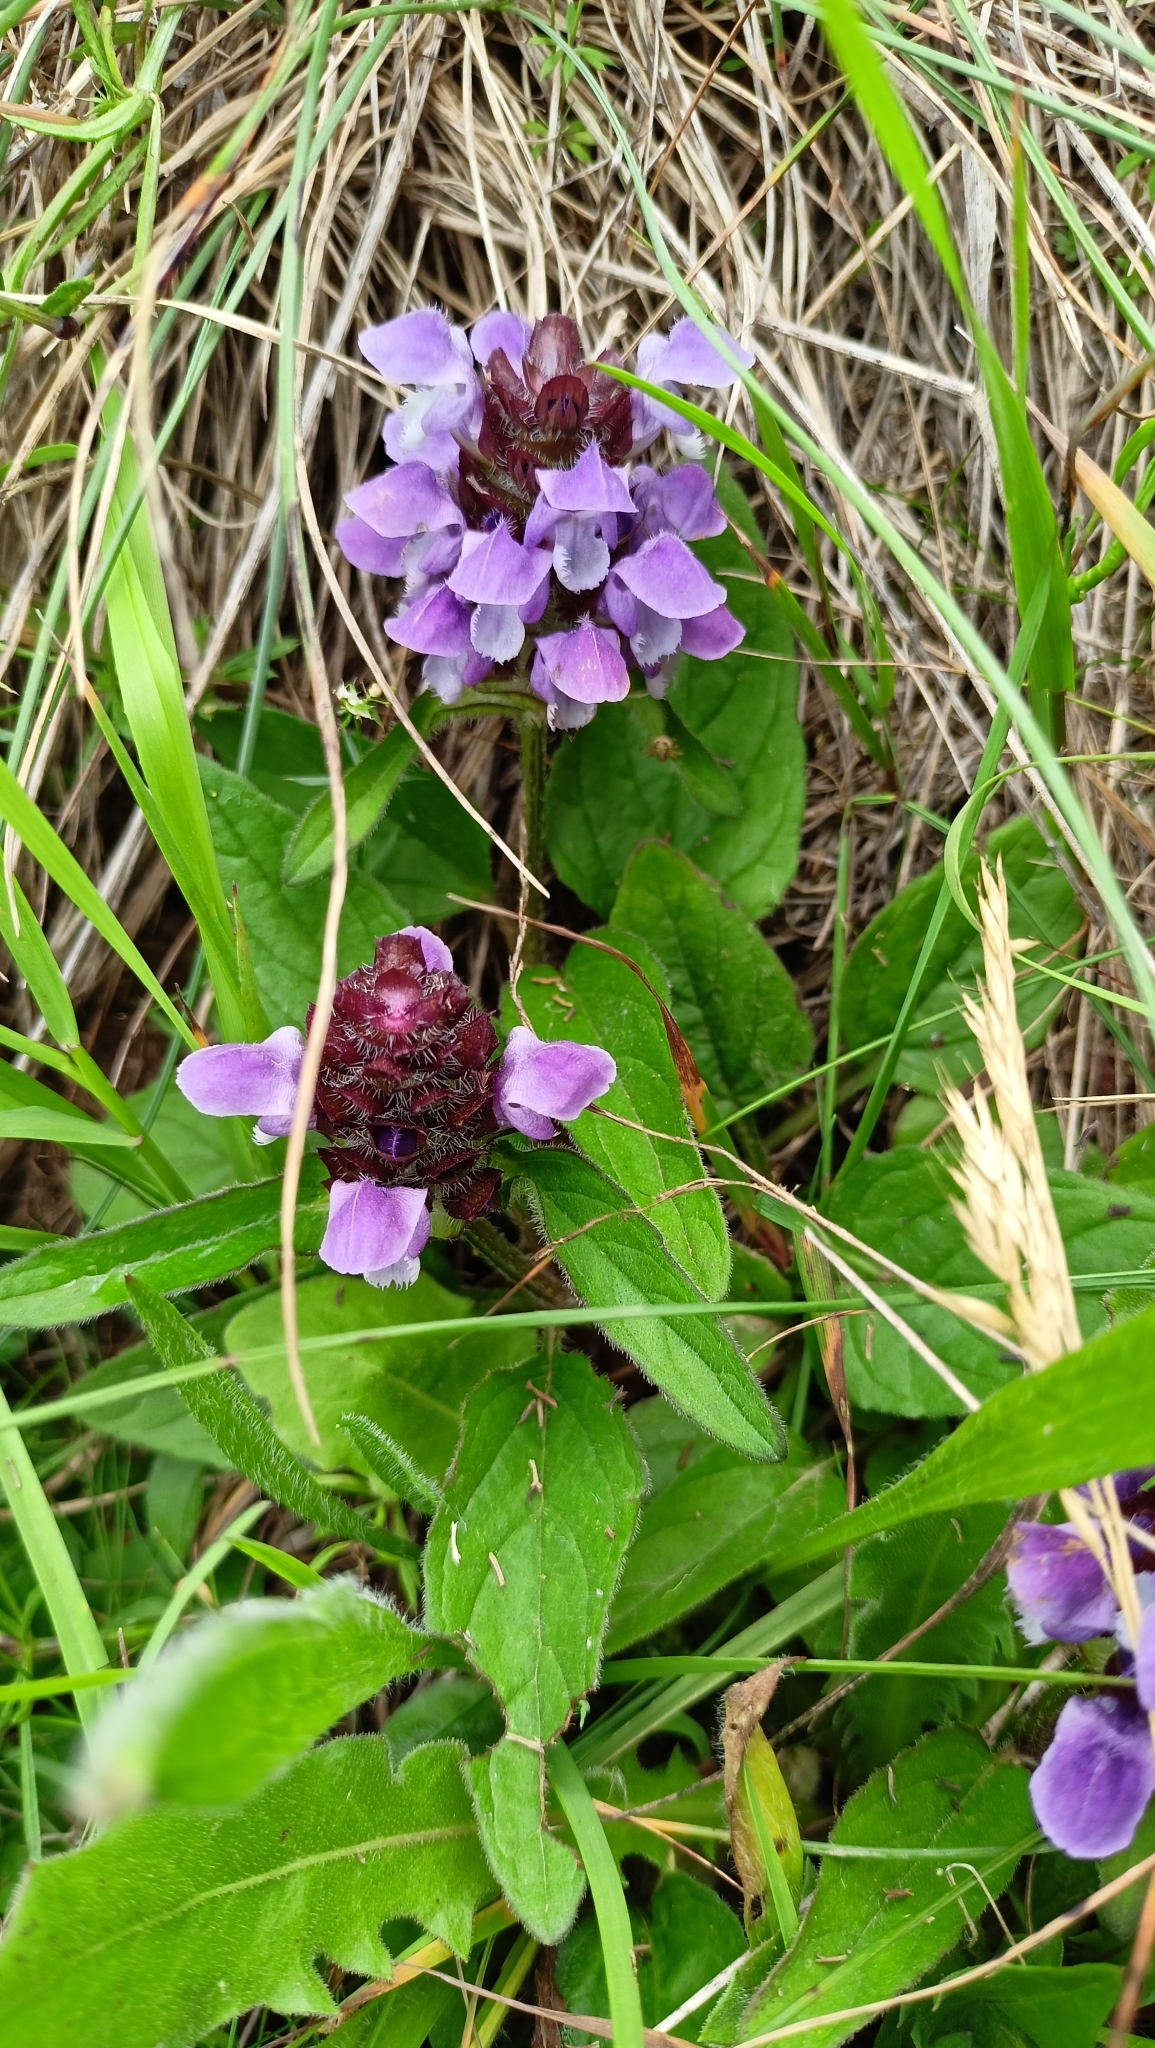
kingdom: Plantae
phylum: Tracheophyta
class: Magnoliopsida
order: Lamiales
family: Lamiaceae
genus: Prunella
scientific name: Prunella vulgaris
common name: Heal-all
